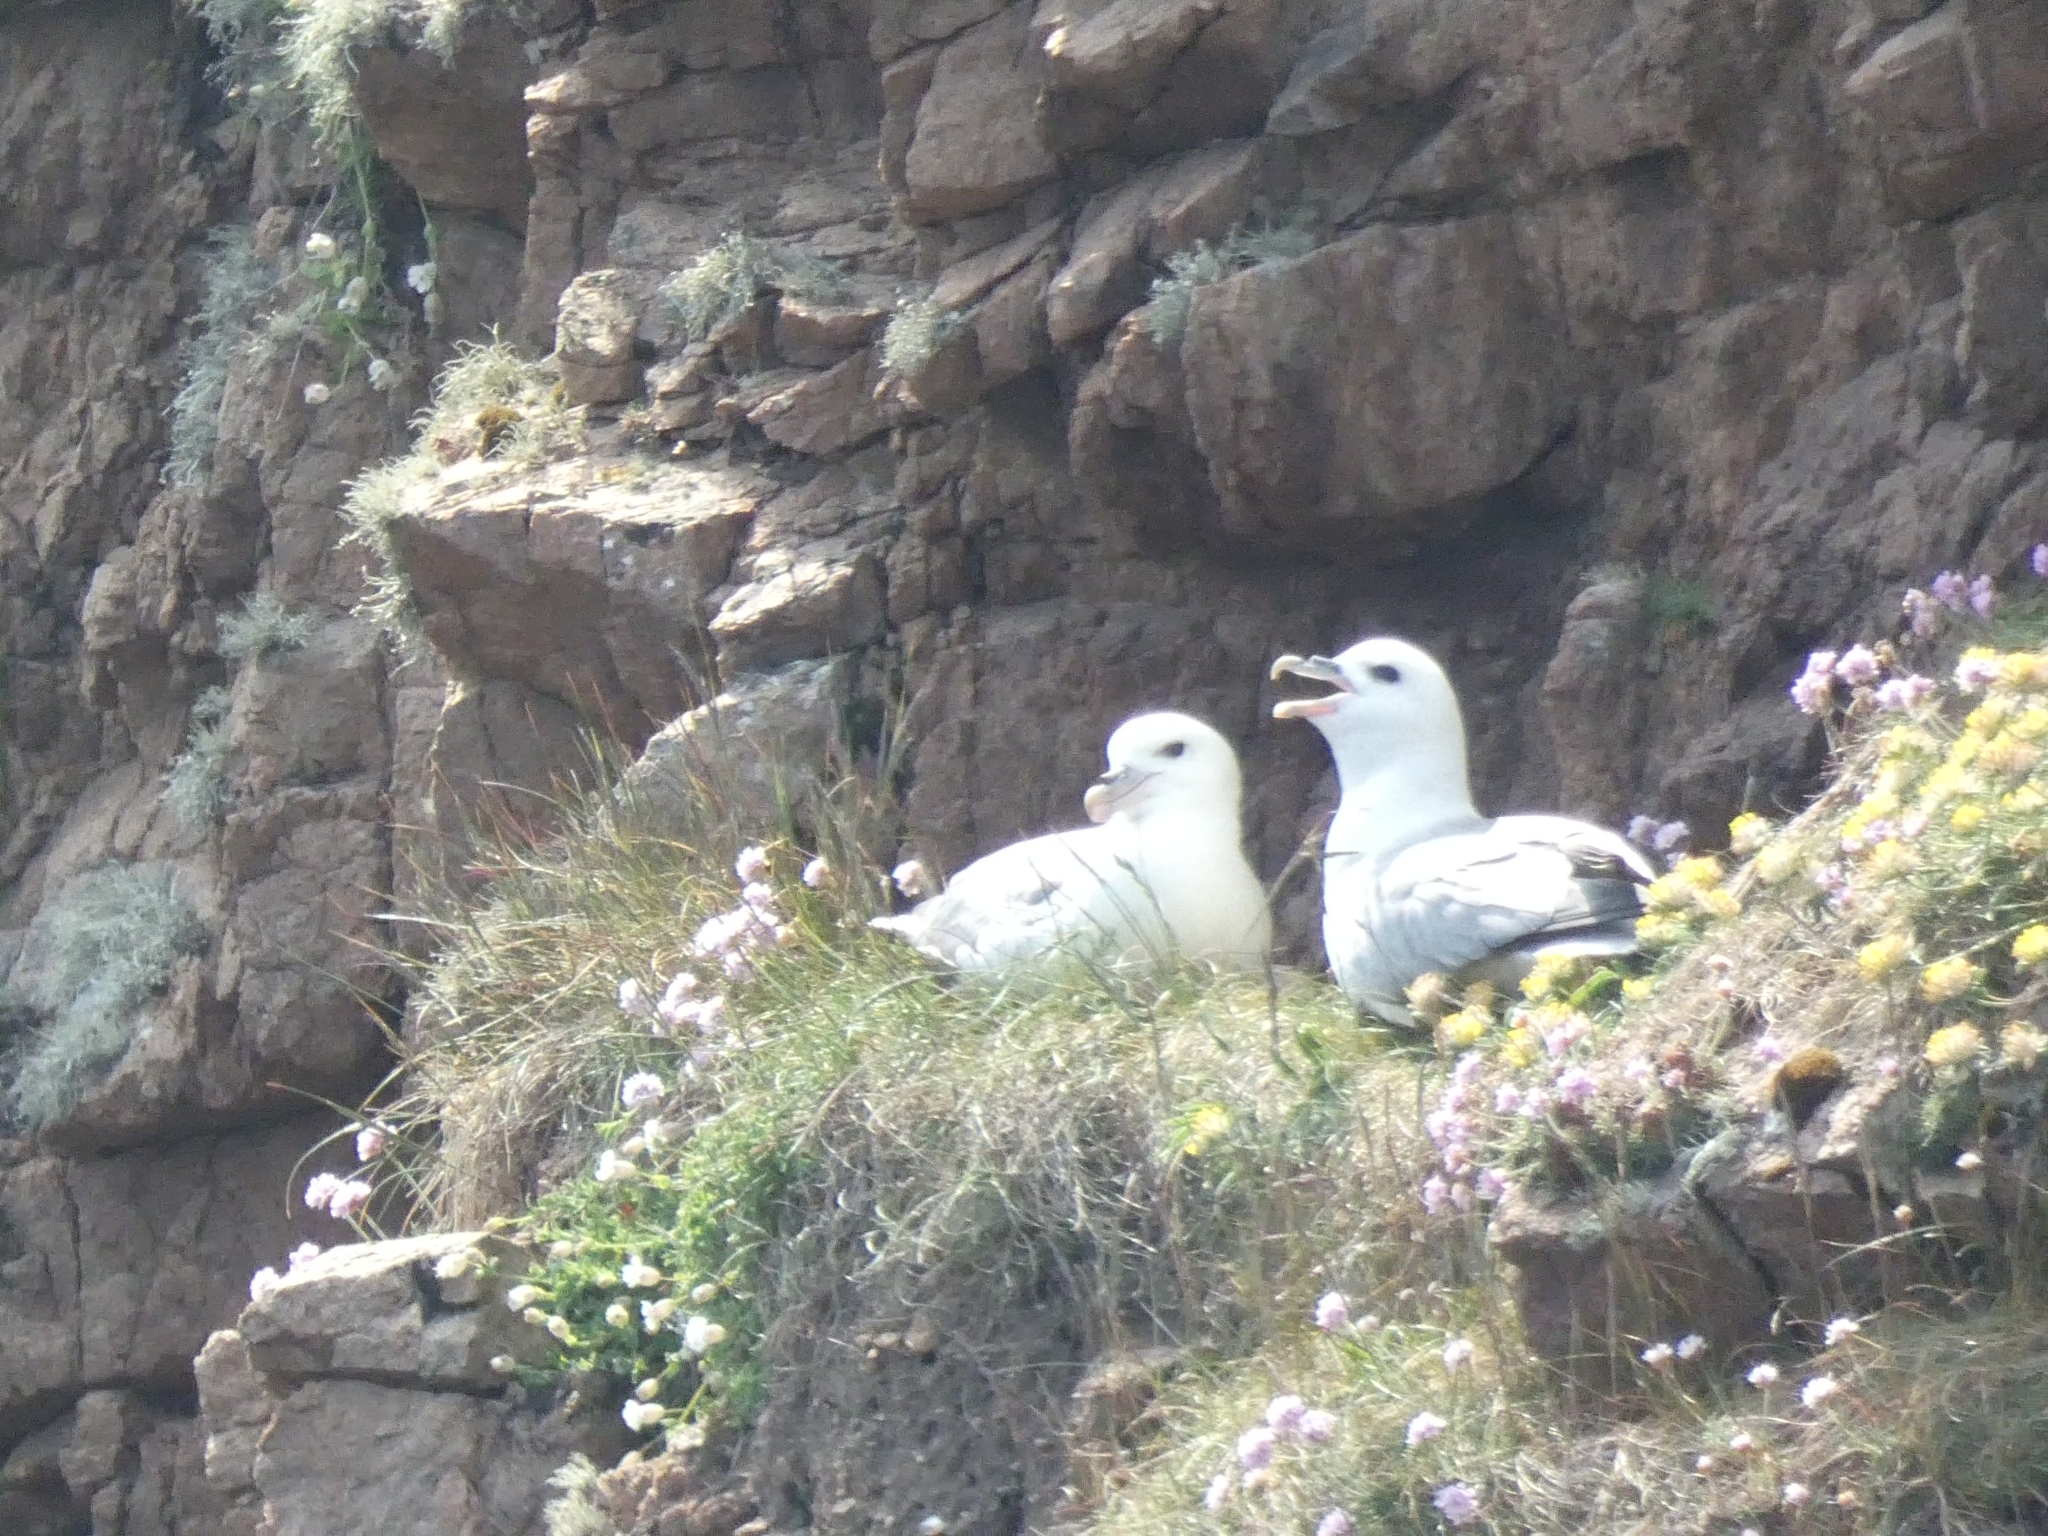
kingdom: Animalia
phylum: Chordata
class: Aves
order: Procellariiformes
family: Procellariidae
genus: Fulmarus
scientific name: Fulmarus glacialis
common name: Northern fulmar
